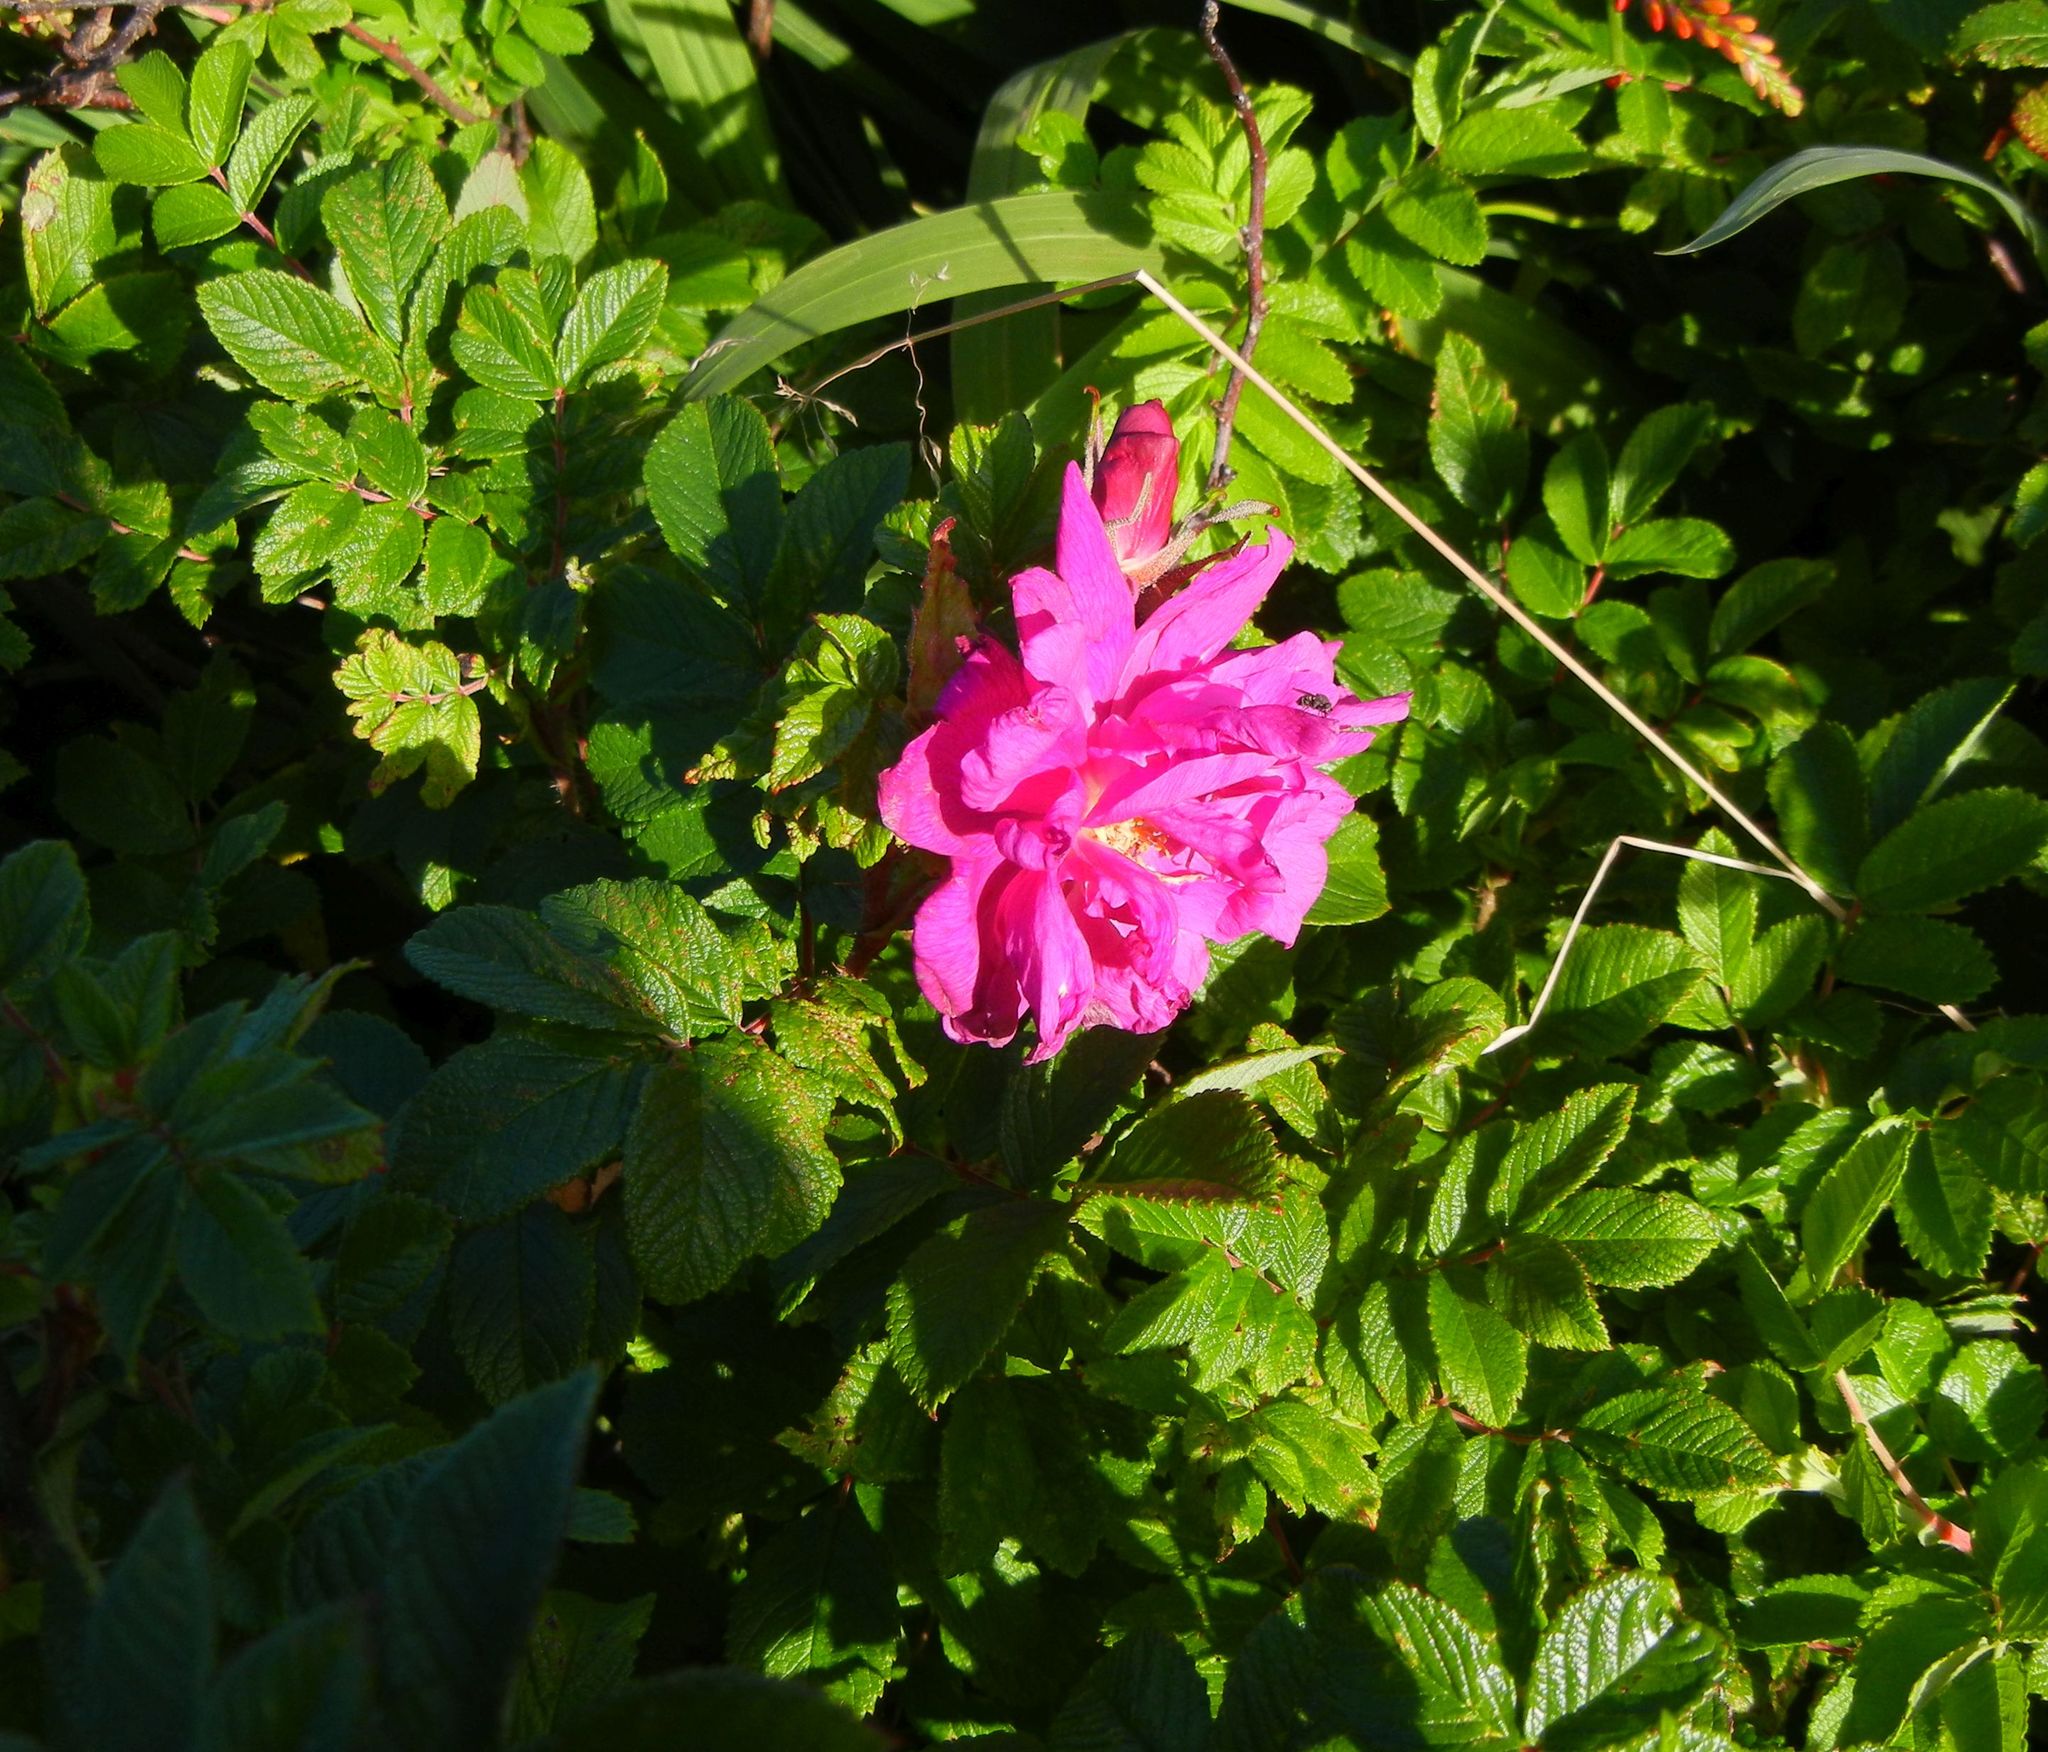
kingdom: Plantae
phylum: Tracheophyta
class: Magnoliopsida
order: Rosales
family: Rosaceae
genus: Rosa
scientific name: Rosa rugosa
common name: Japanese rose
